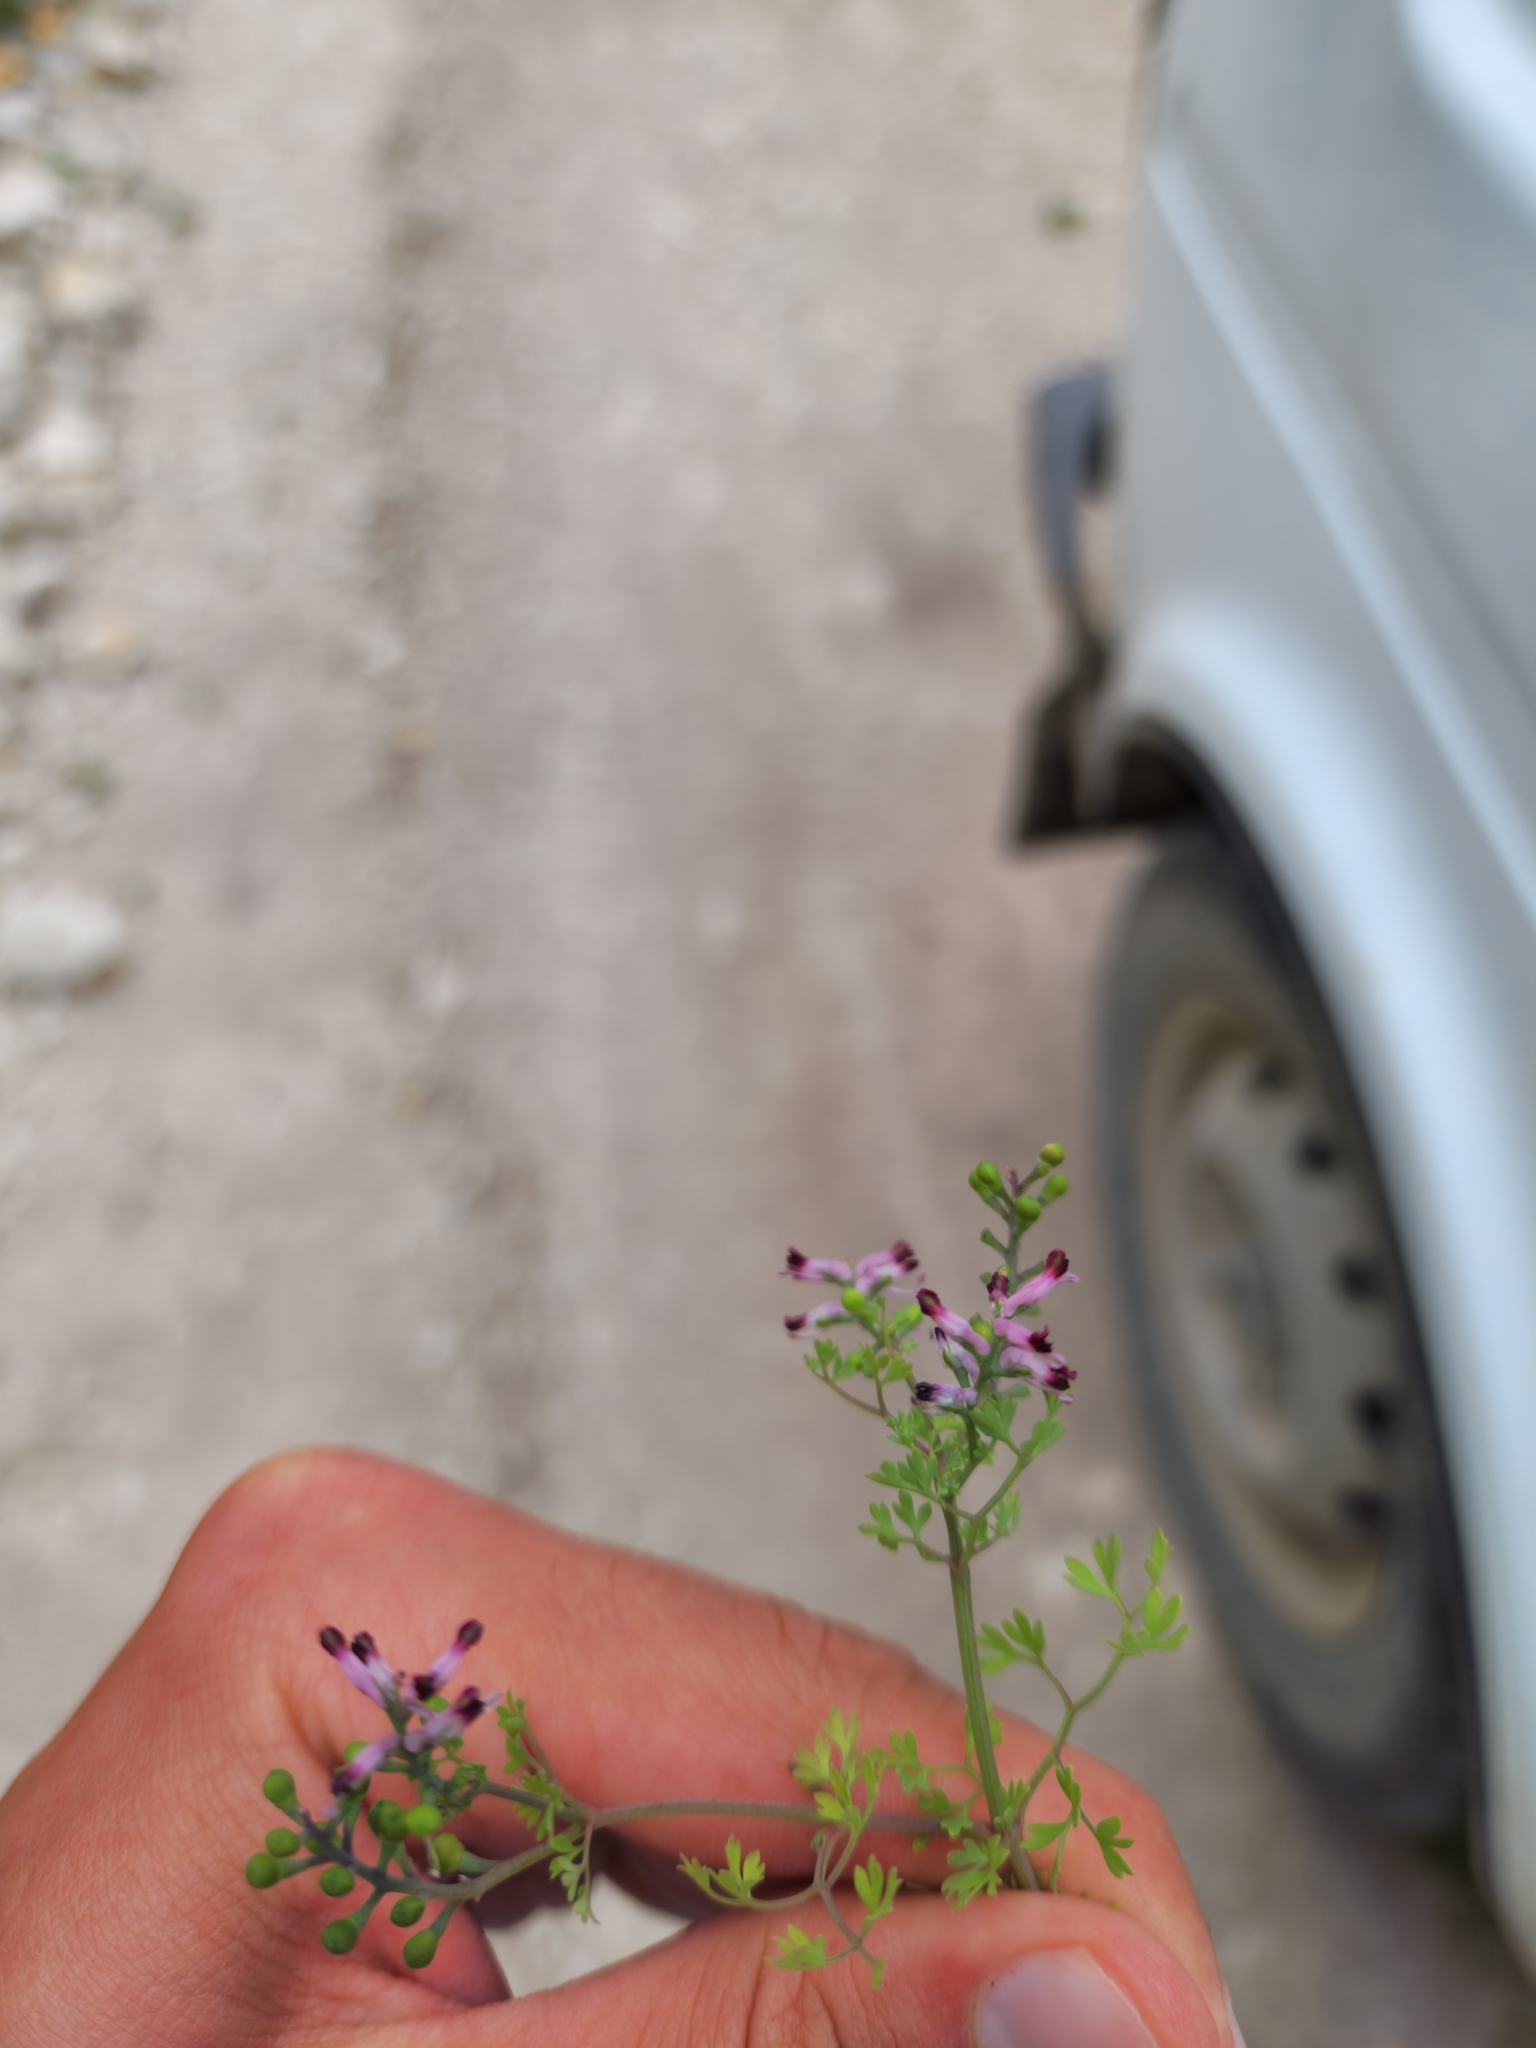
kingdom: Plantae
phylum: Tracheophyta
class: Magnoliopsida
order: Ranunculales
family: Papaveraceae
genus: Fumaria
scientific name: Fumaria schleicheri
